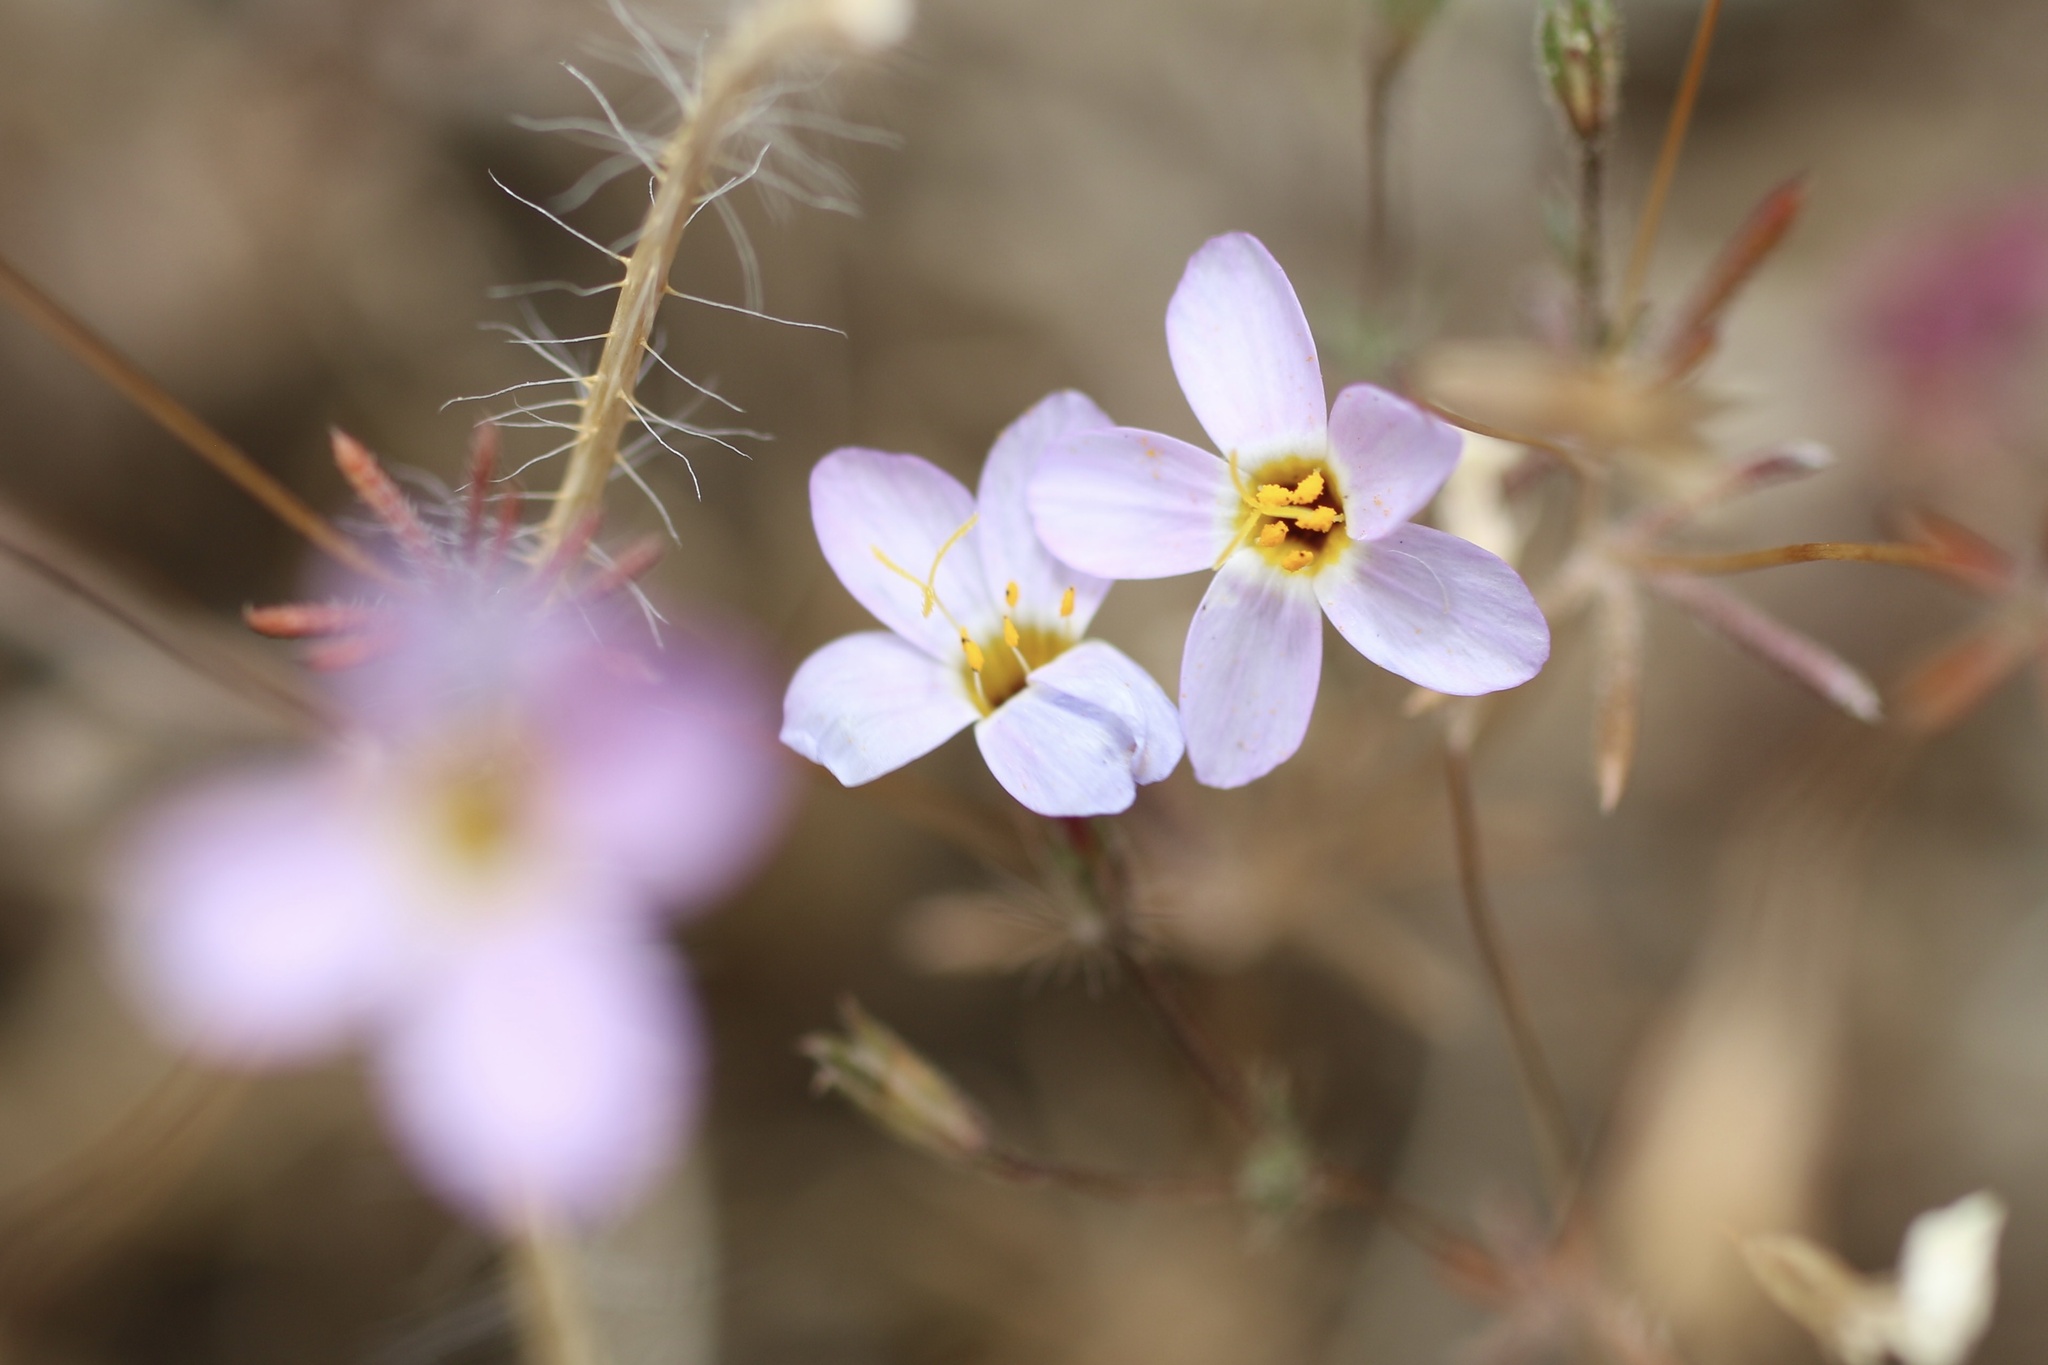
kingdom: Plantae
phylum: Tracheophyta
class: Magnoliopsida
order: Ericales
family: Polemoniaceae
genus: Leptosiphon
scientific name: Leptosiphon ambiguus
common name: Serpentine linanthus
